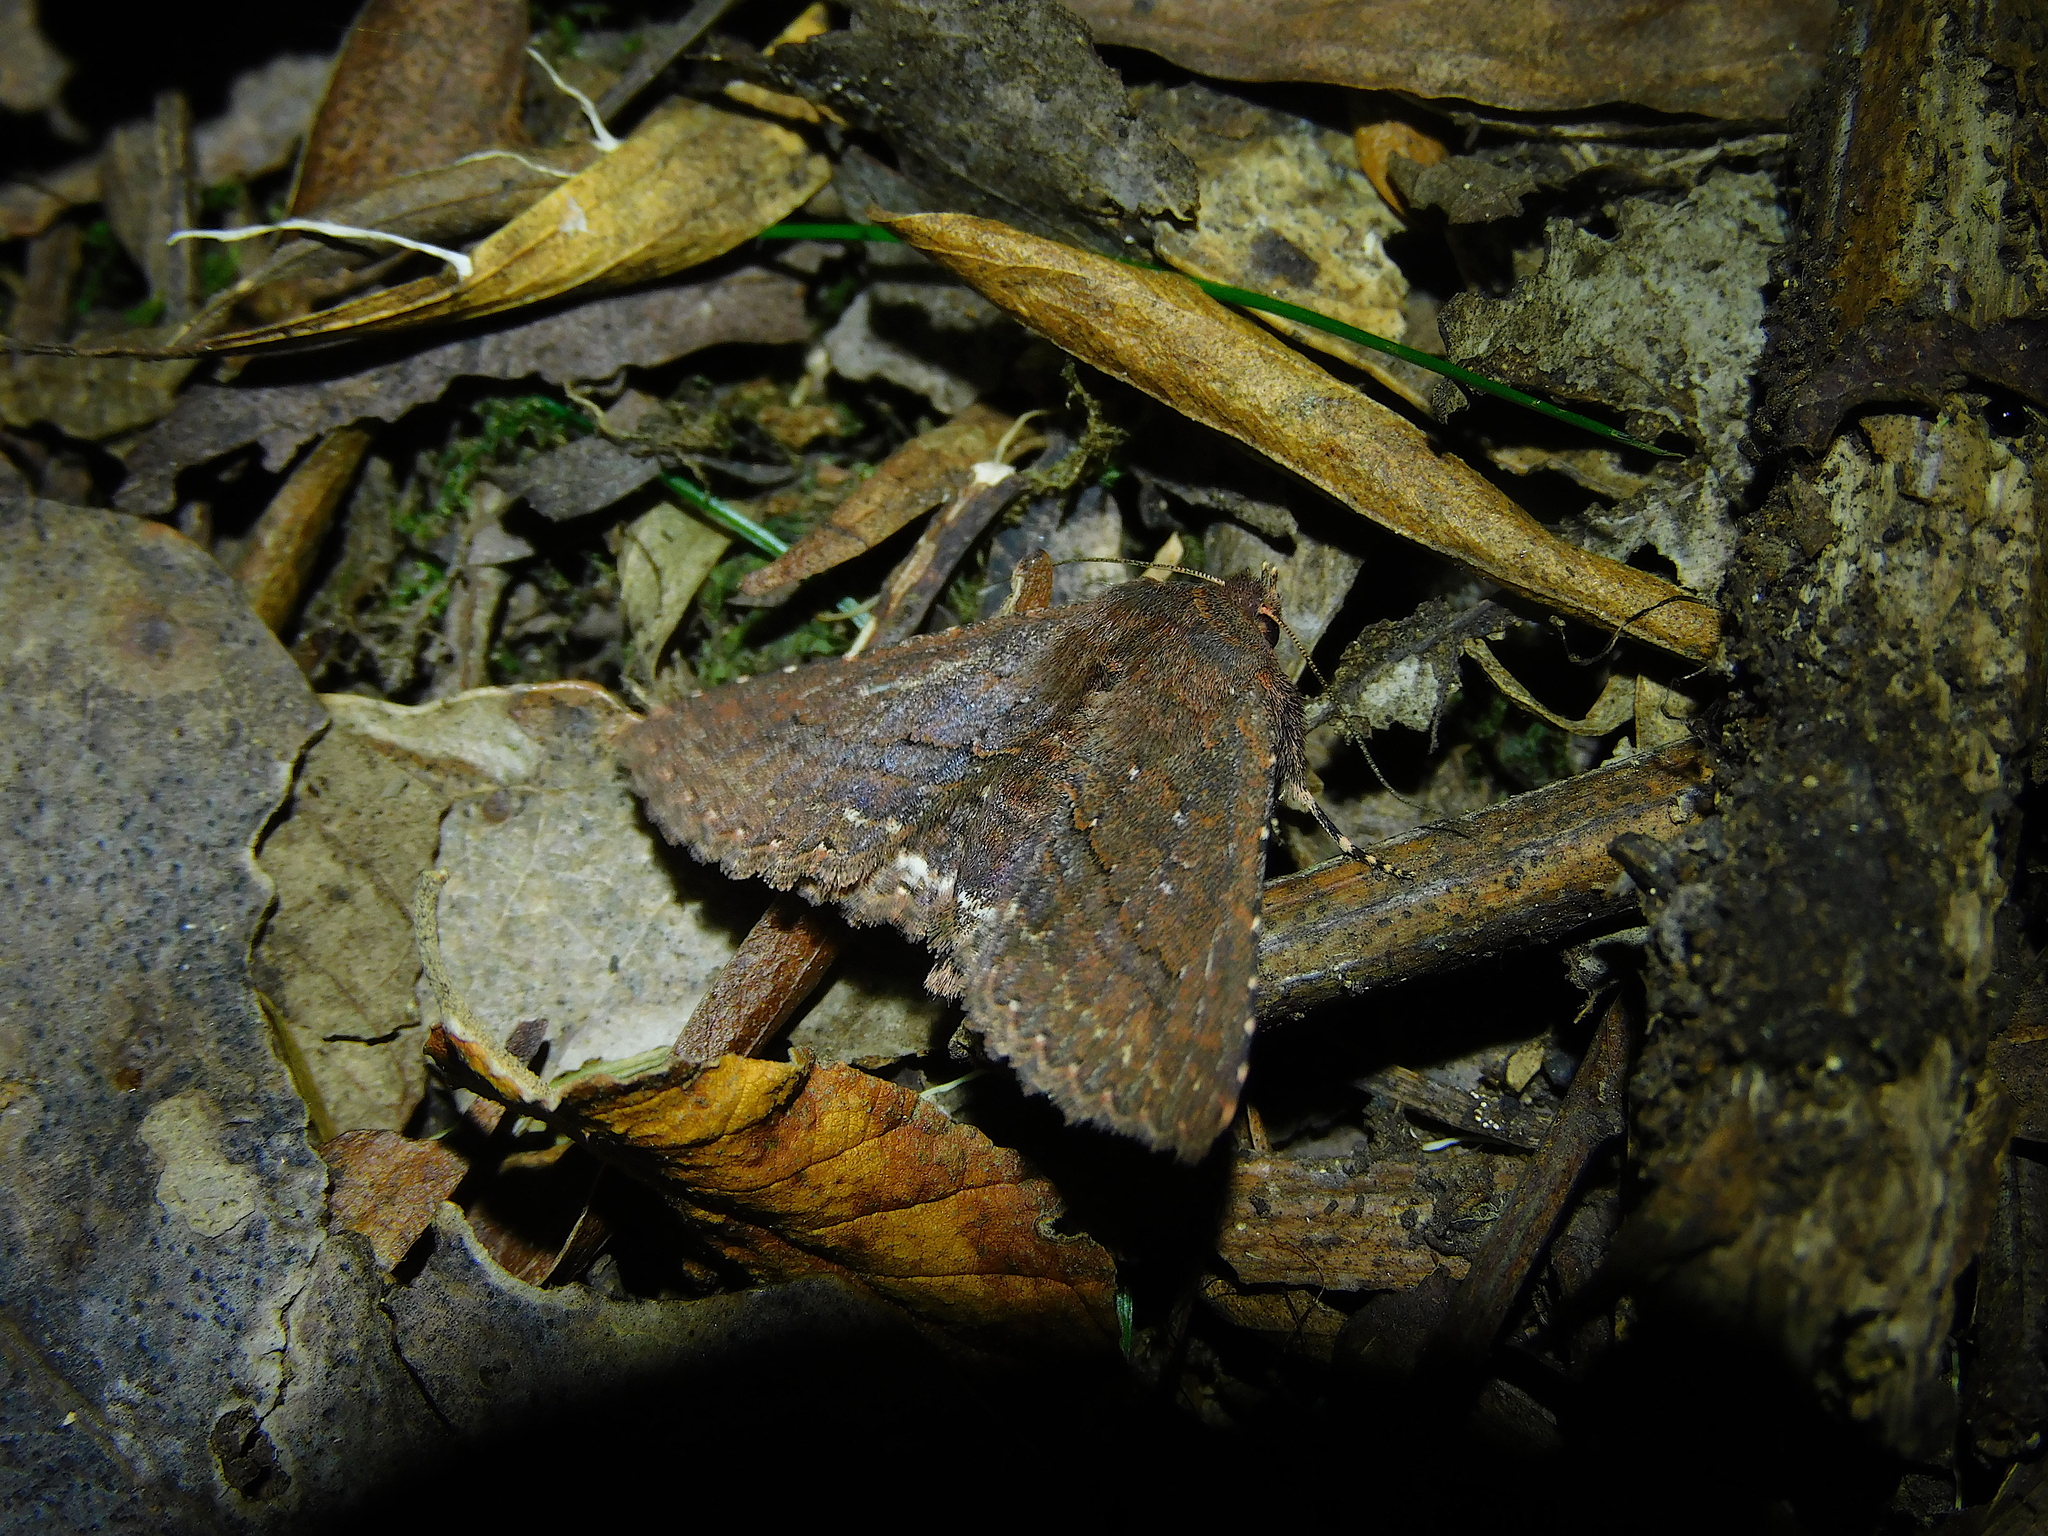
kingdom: Animalia
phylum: Arthropoda
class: Insecta
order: Lepidoptera
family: Erebidae
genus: Praxis
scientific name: Praxis porphyretica
